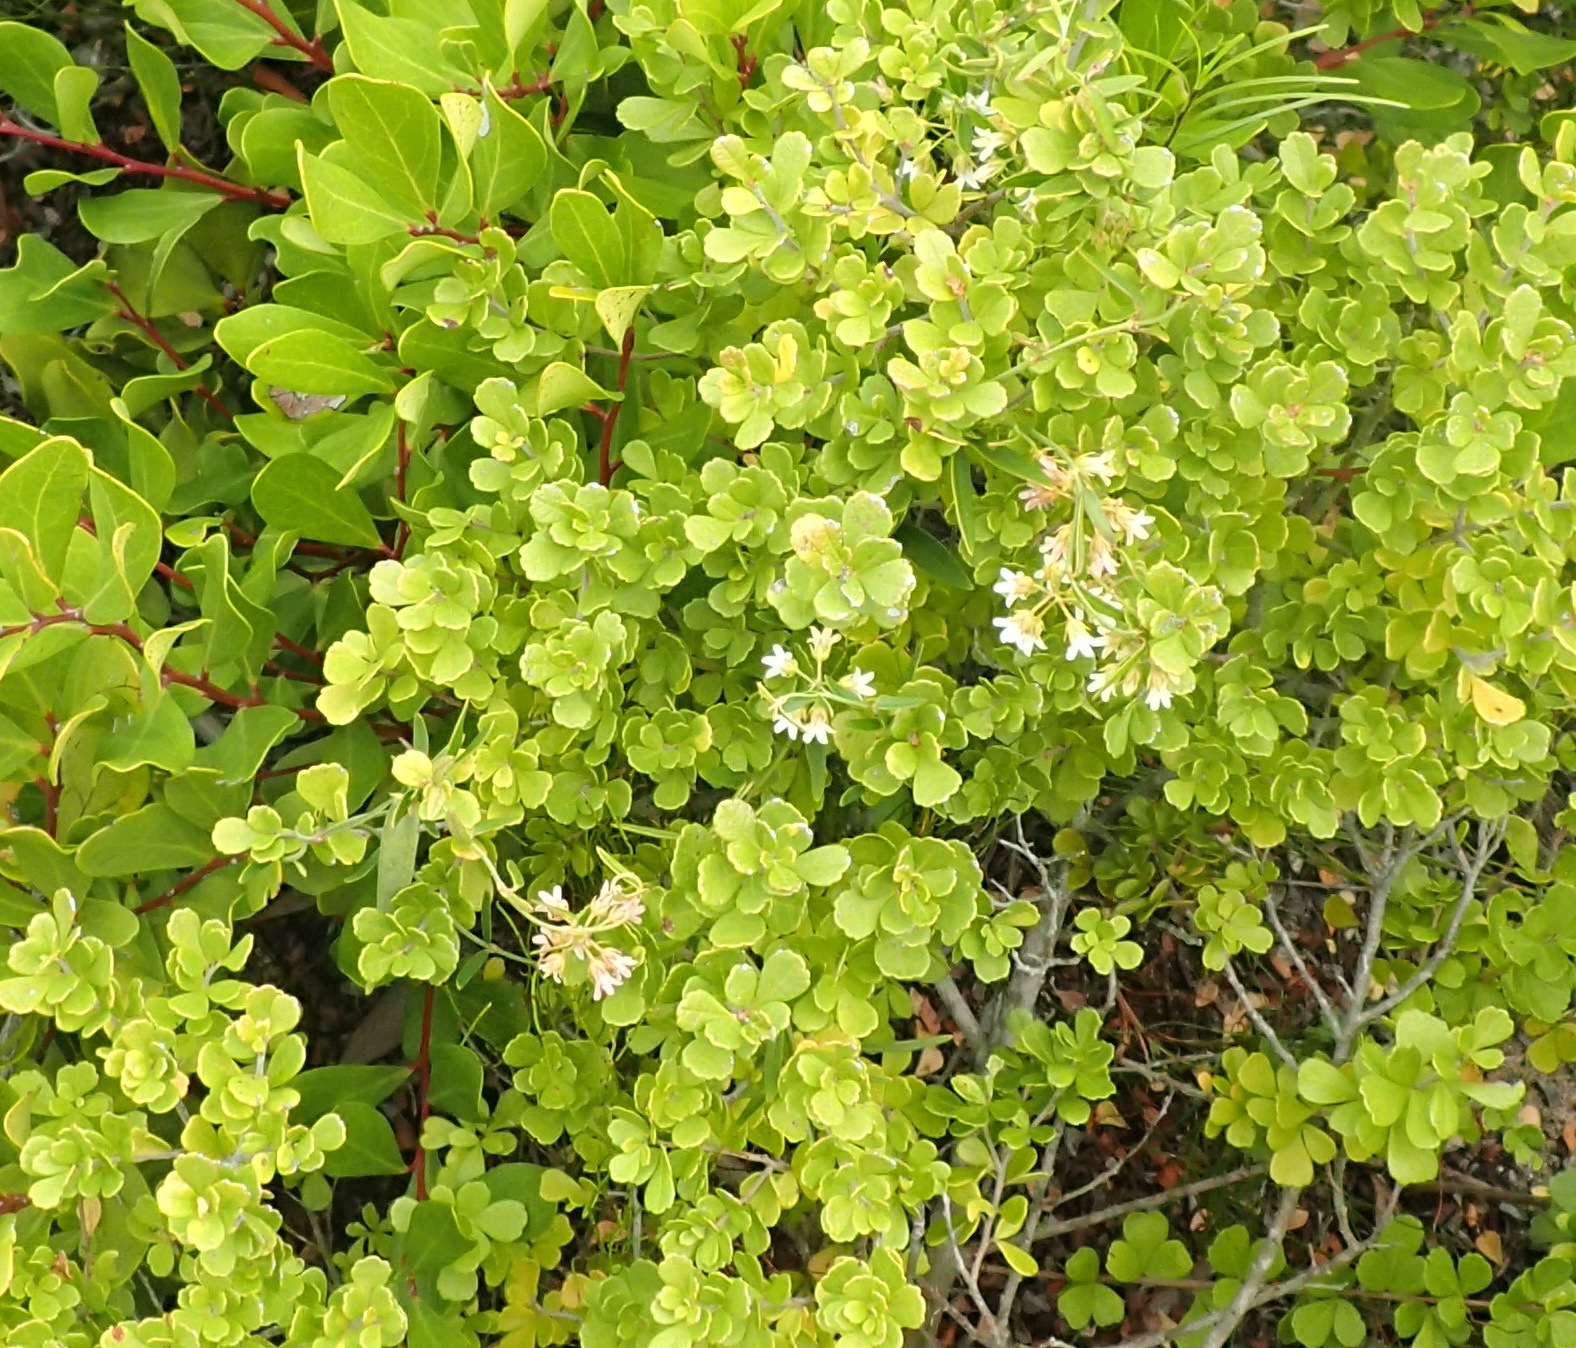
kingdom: Plantae
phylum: Tracheophyta
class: Magnoliopsida
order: Gentianales
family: Apocynaceae
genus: Astephanus
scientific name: Astephanus triflorus
